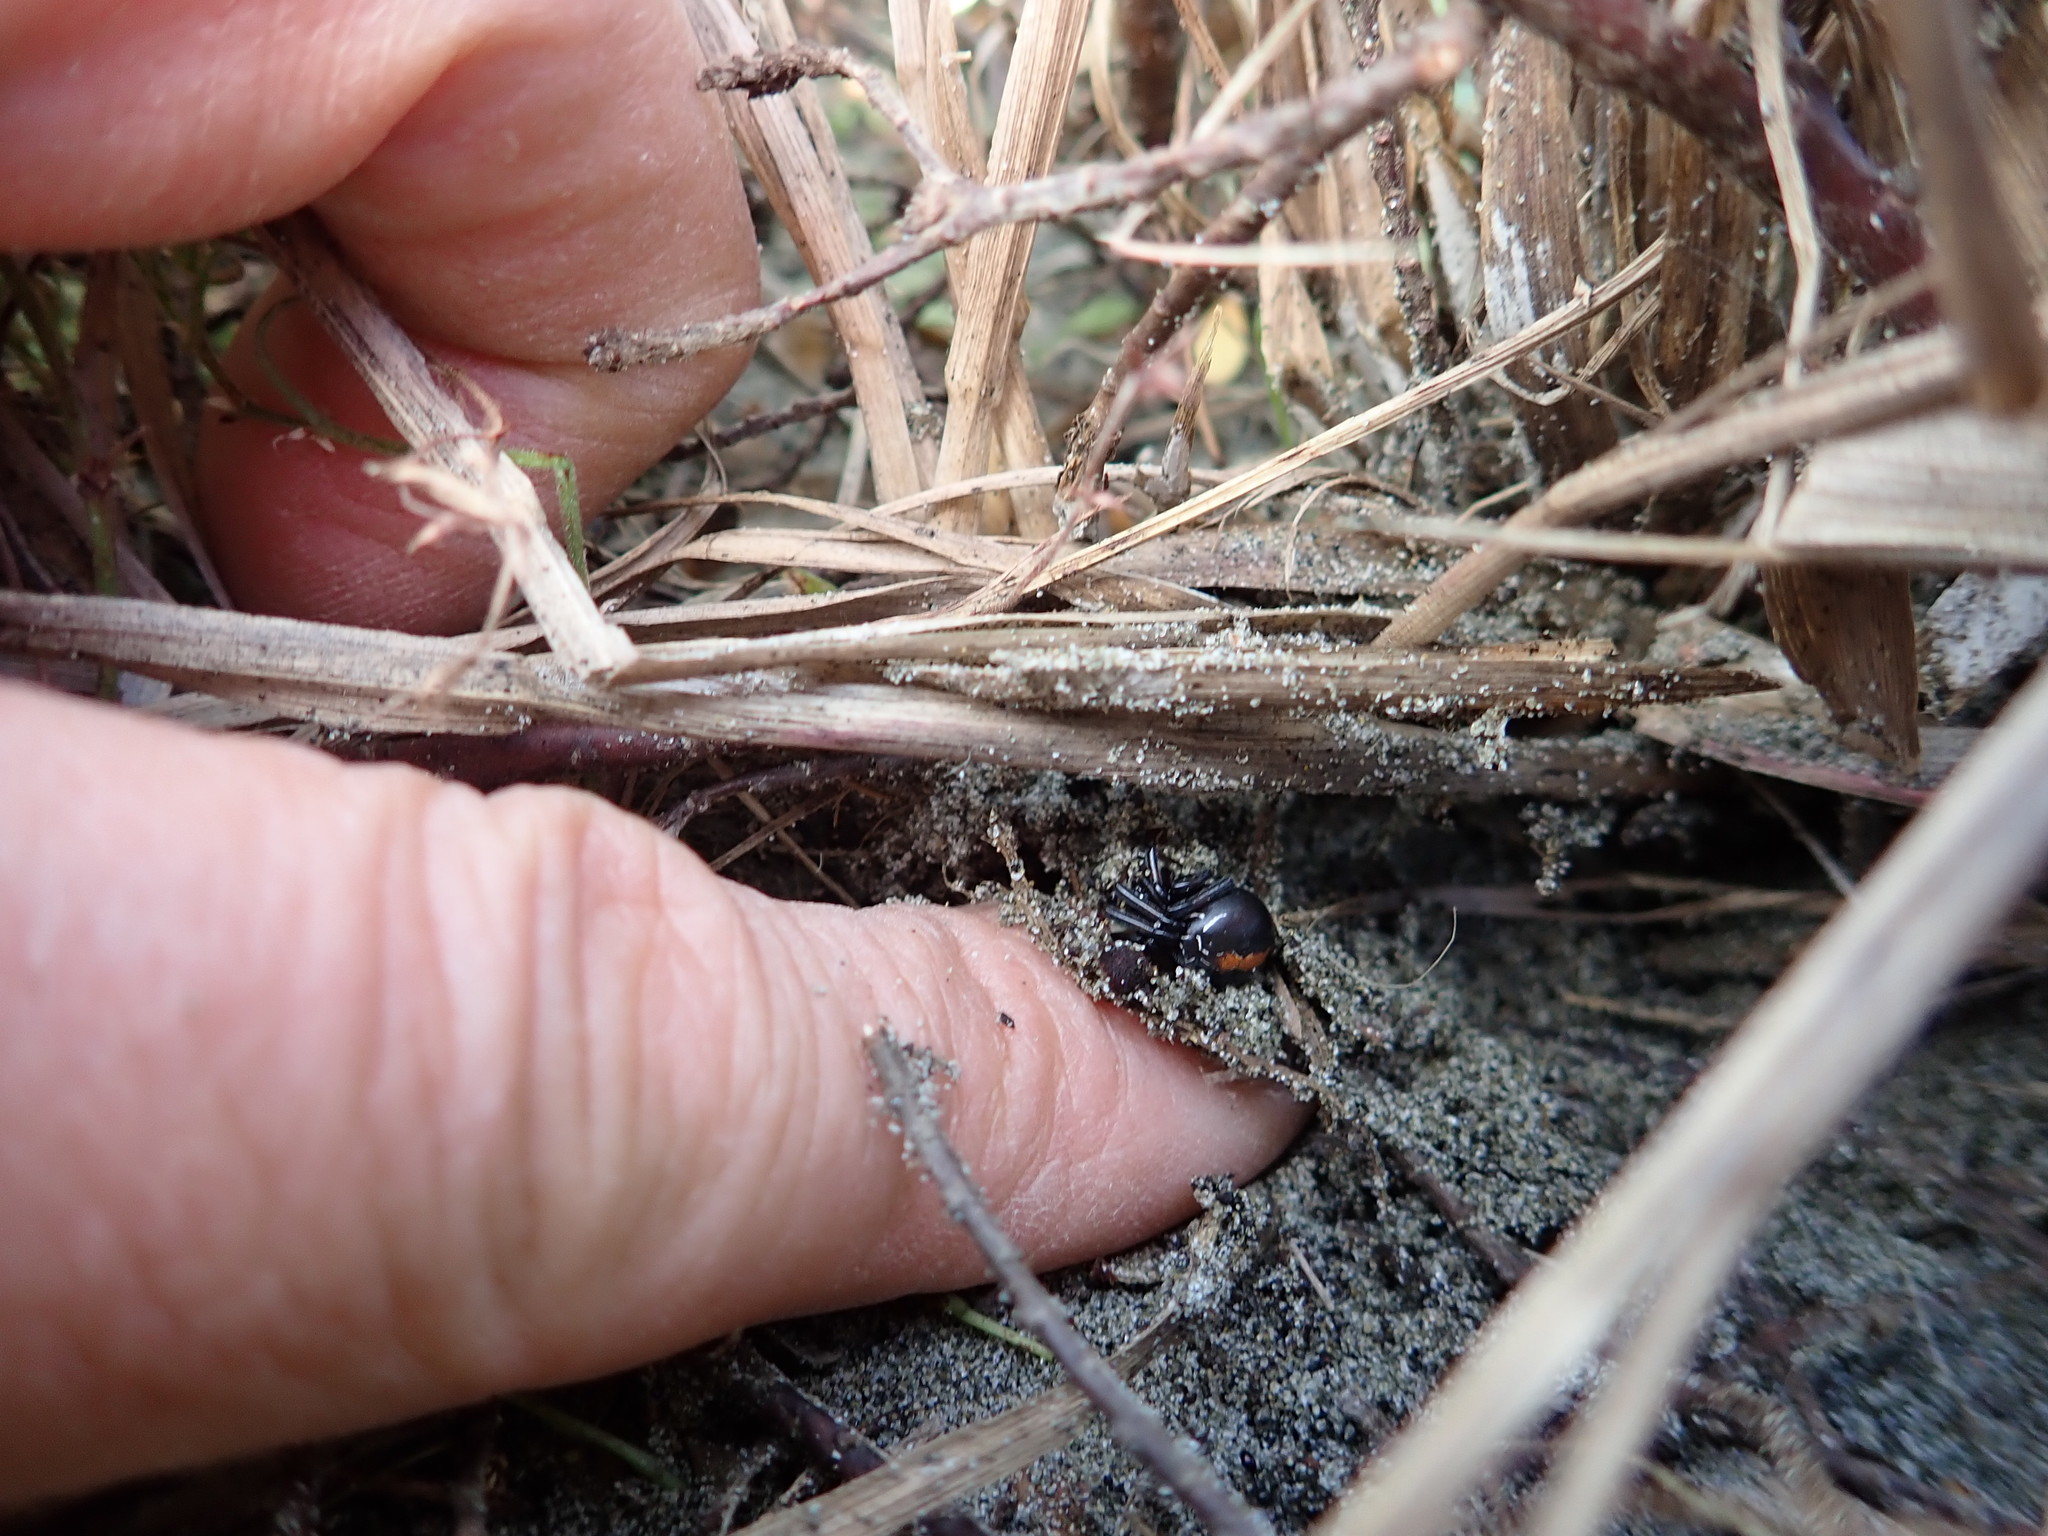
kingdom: Animalia
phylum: Arthropoda
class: Arachnida
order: Araneae
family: Theridiidae
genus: Latrodectus
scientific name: Latrodectus katipo
